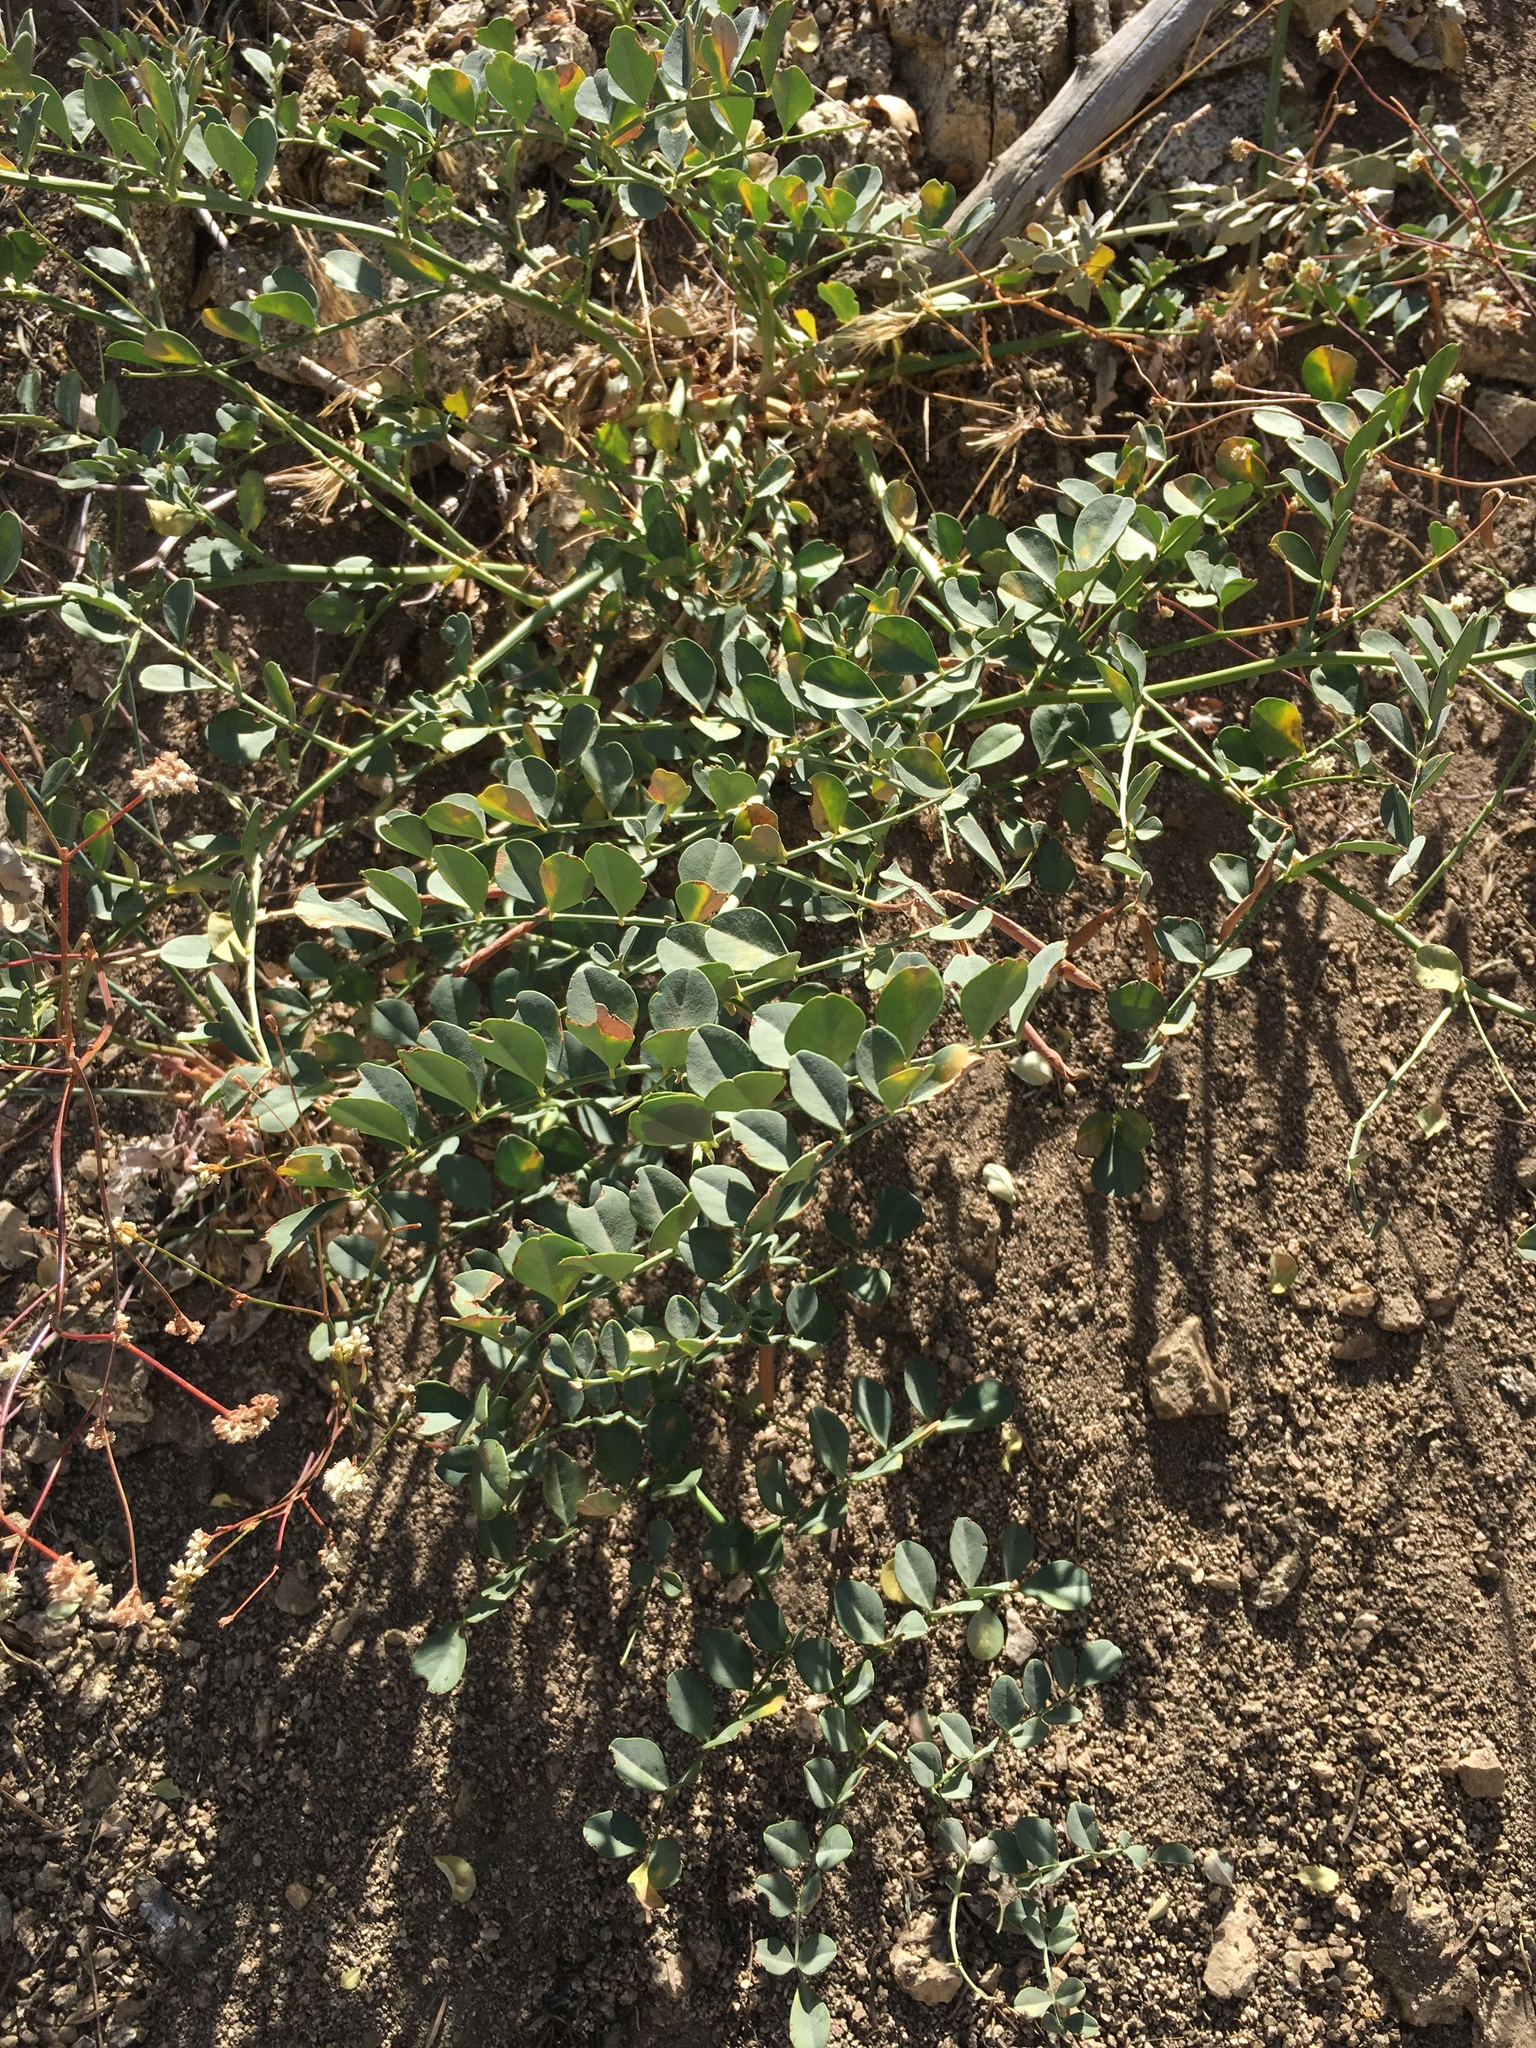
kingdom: Plantae
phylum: Tracheophyta
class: Magnoliopsida
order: Fabales
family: Fabaceae
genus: Hosackia
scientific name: Hosackia crassifolia
